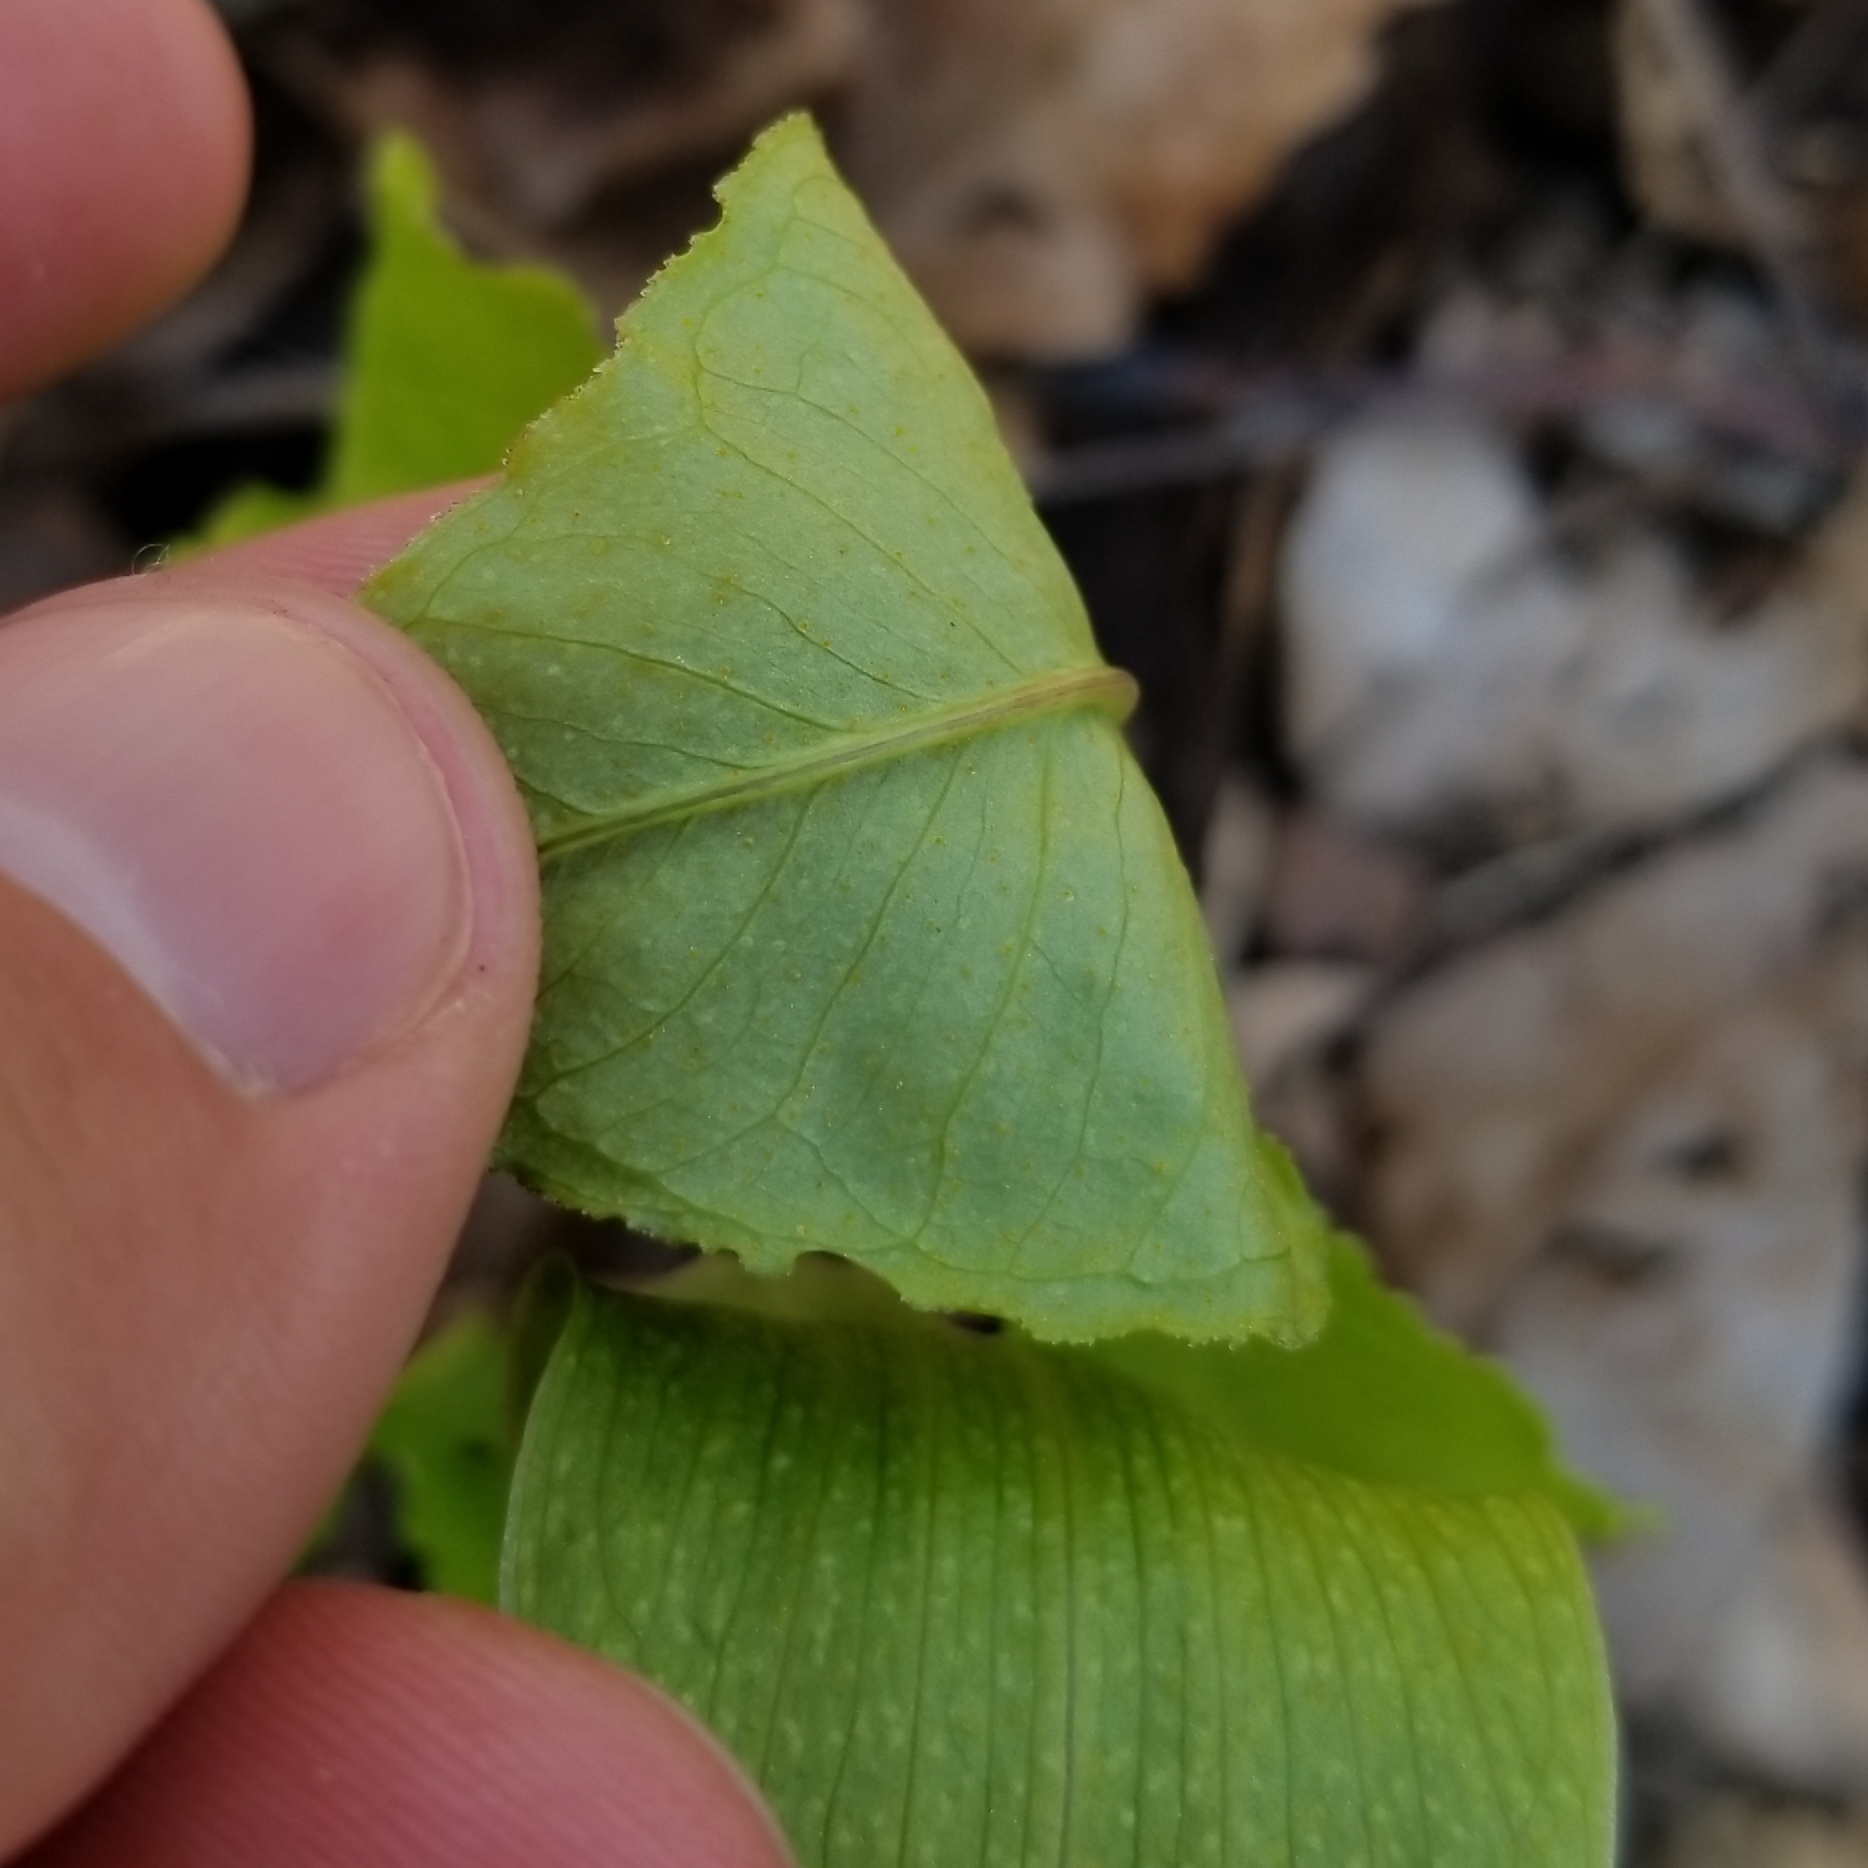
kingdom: Plantae
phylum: Tracheophyta
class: Liliopsida
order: Alismatales
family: Araceae
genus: Arisaema
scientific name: Arisaema triphyllum
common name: Jack-in-the-pulpit
